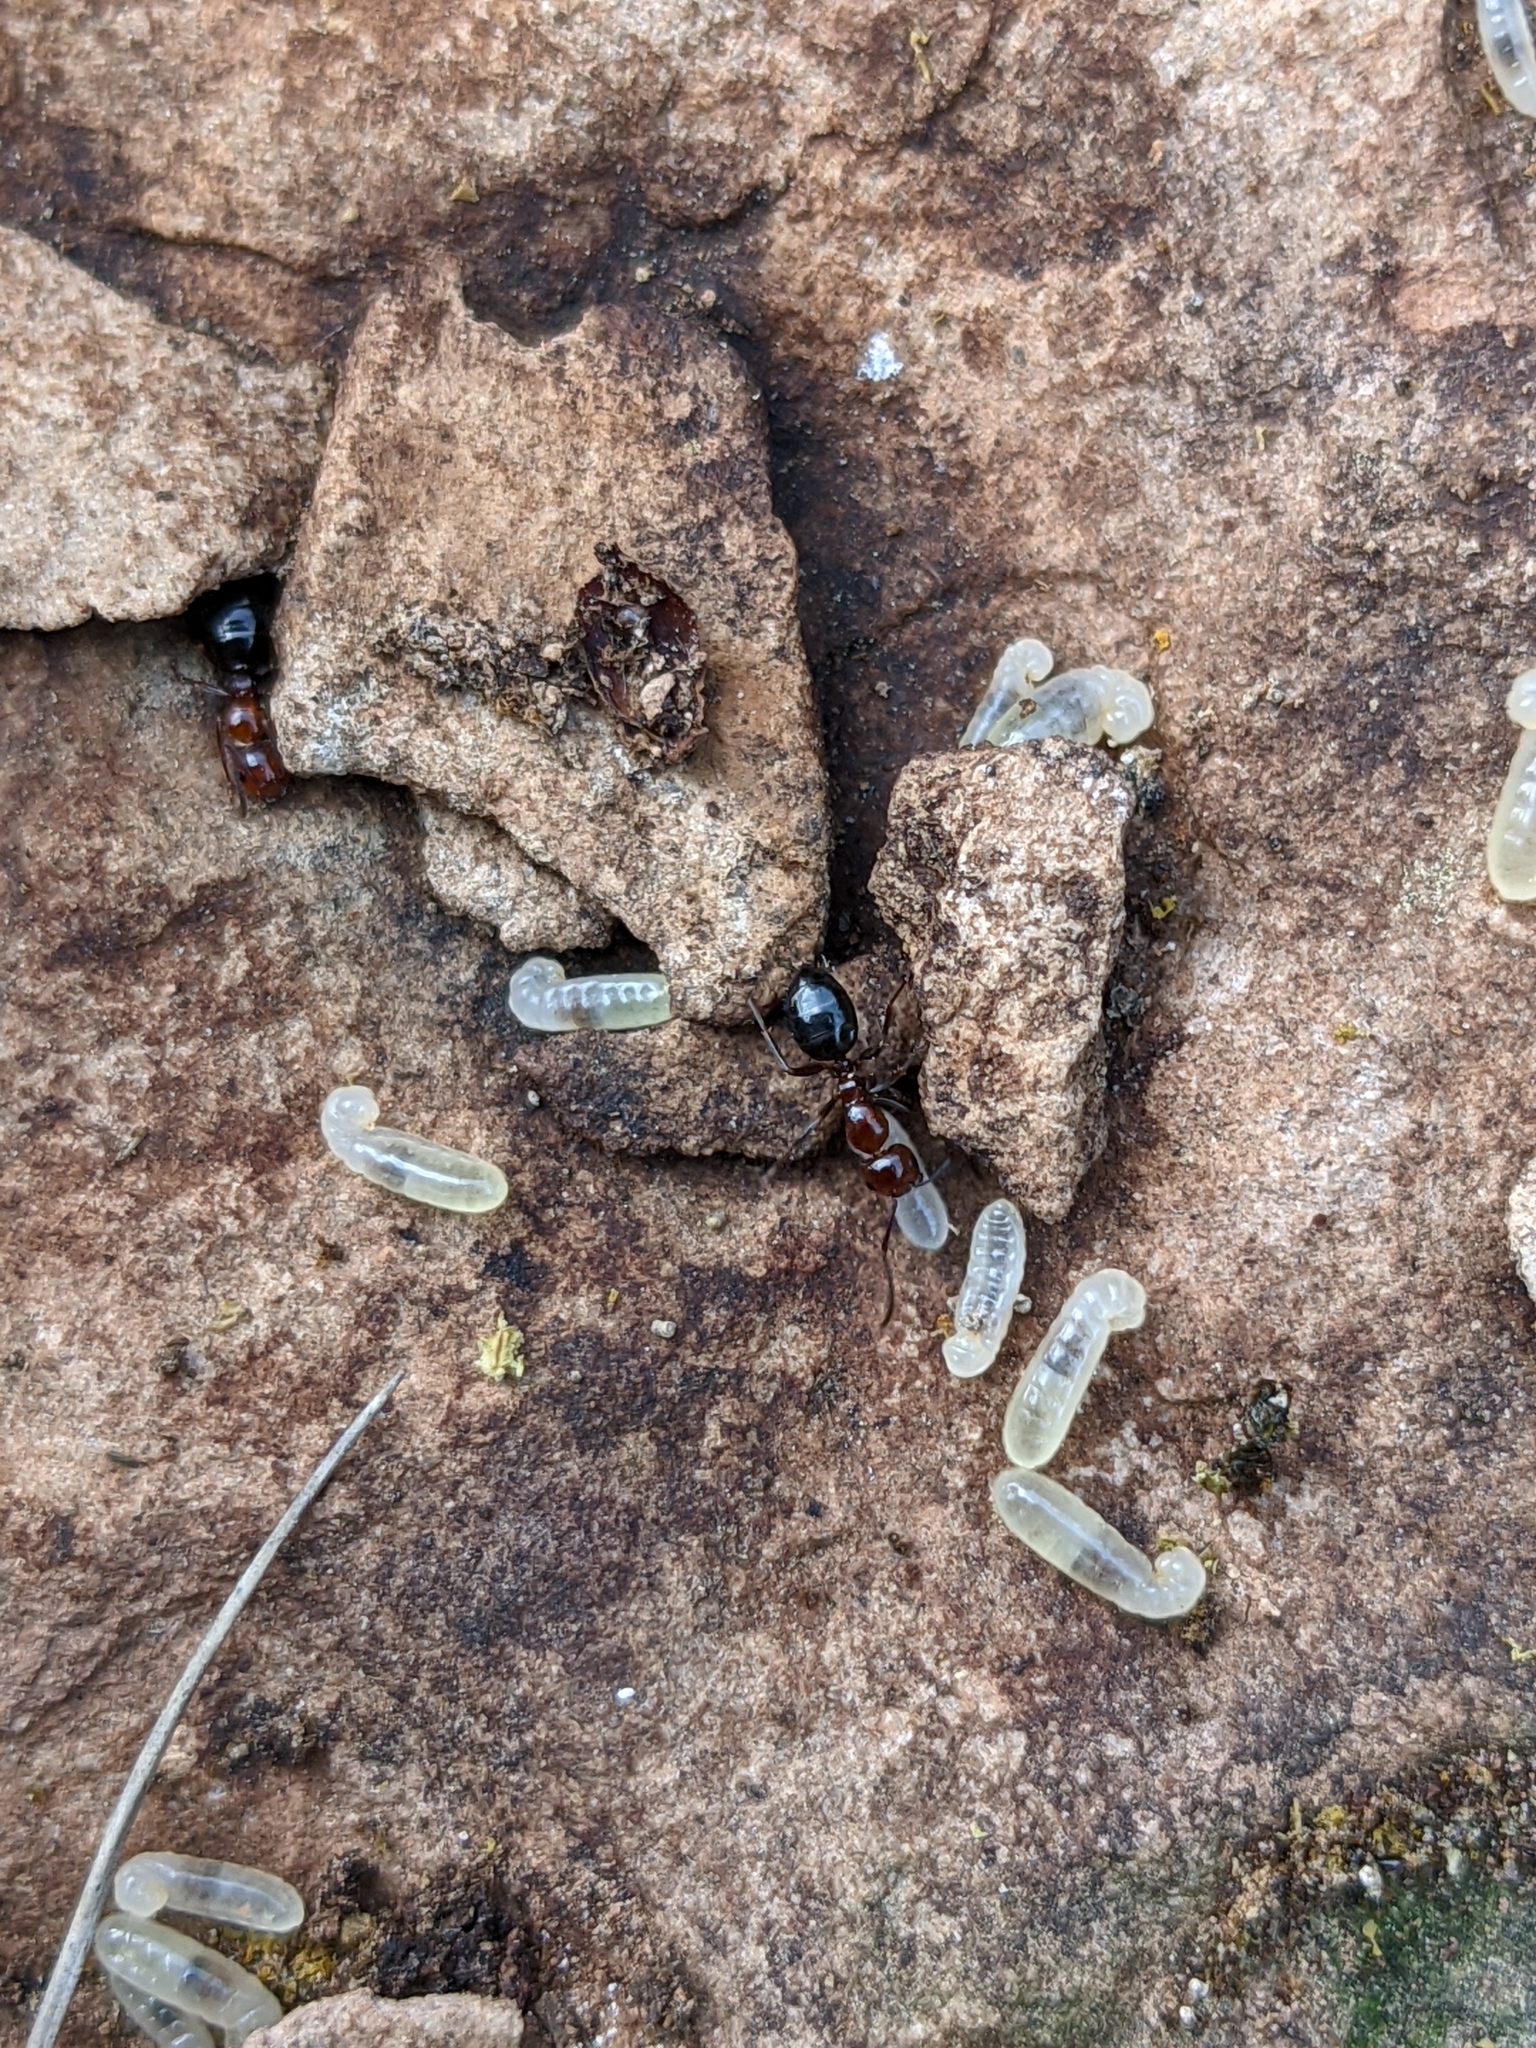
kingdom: Animalia
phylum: Arthropoda
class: Insecta
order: Hymenoptera
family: Formicidae
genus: Camponotus
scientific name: Camponotus lateralis
